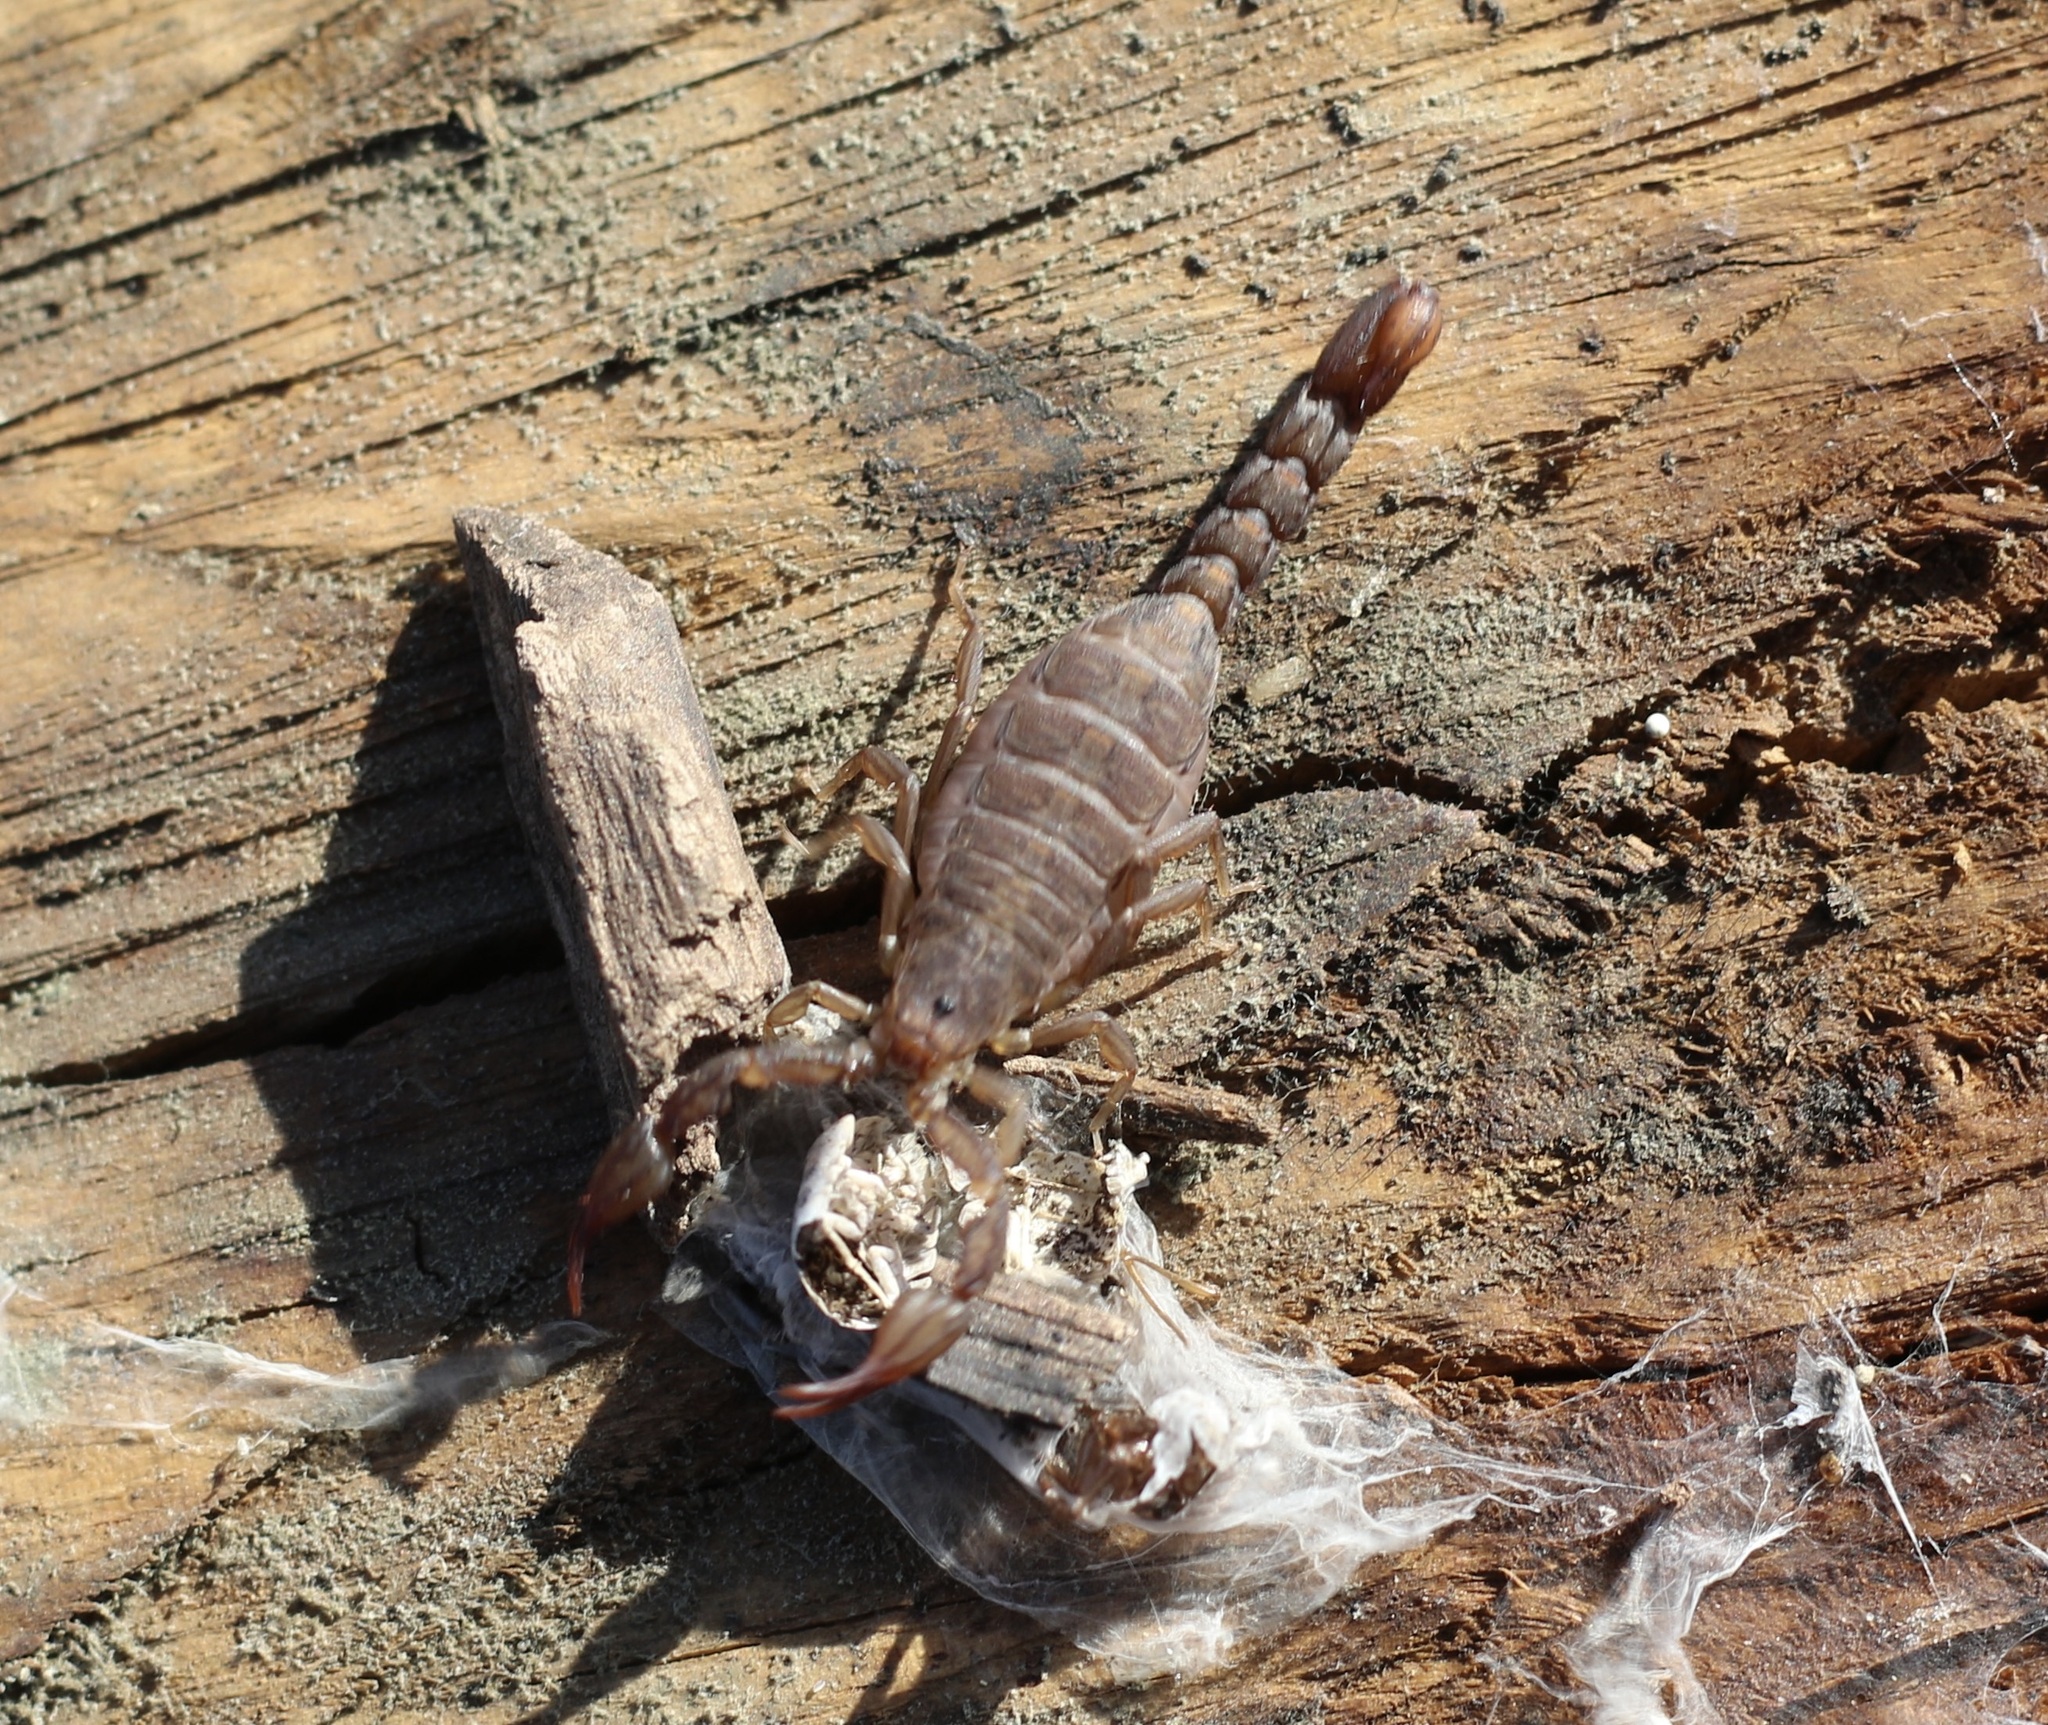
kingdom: Animalia
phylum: Arthropoda
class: Arachnida
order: Scorpiones
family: Vaejovidae
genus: Catalinia
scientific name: Catalinia thompsoni
